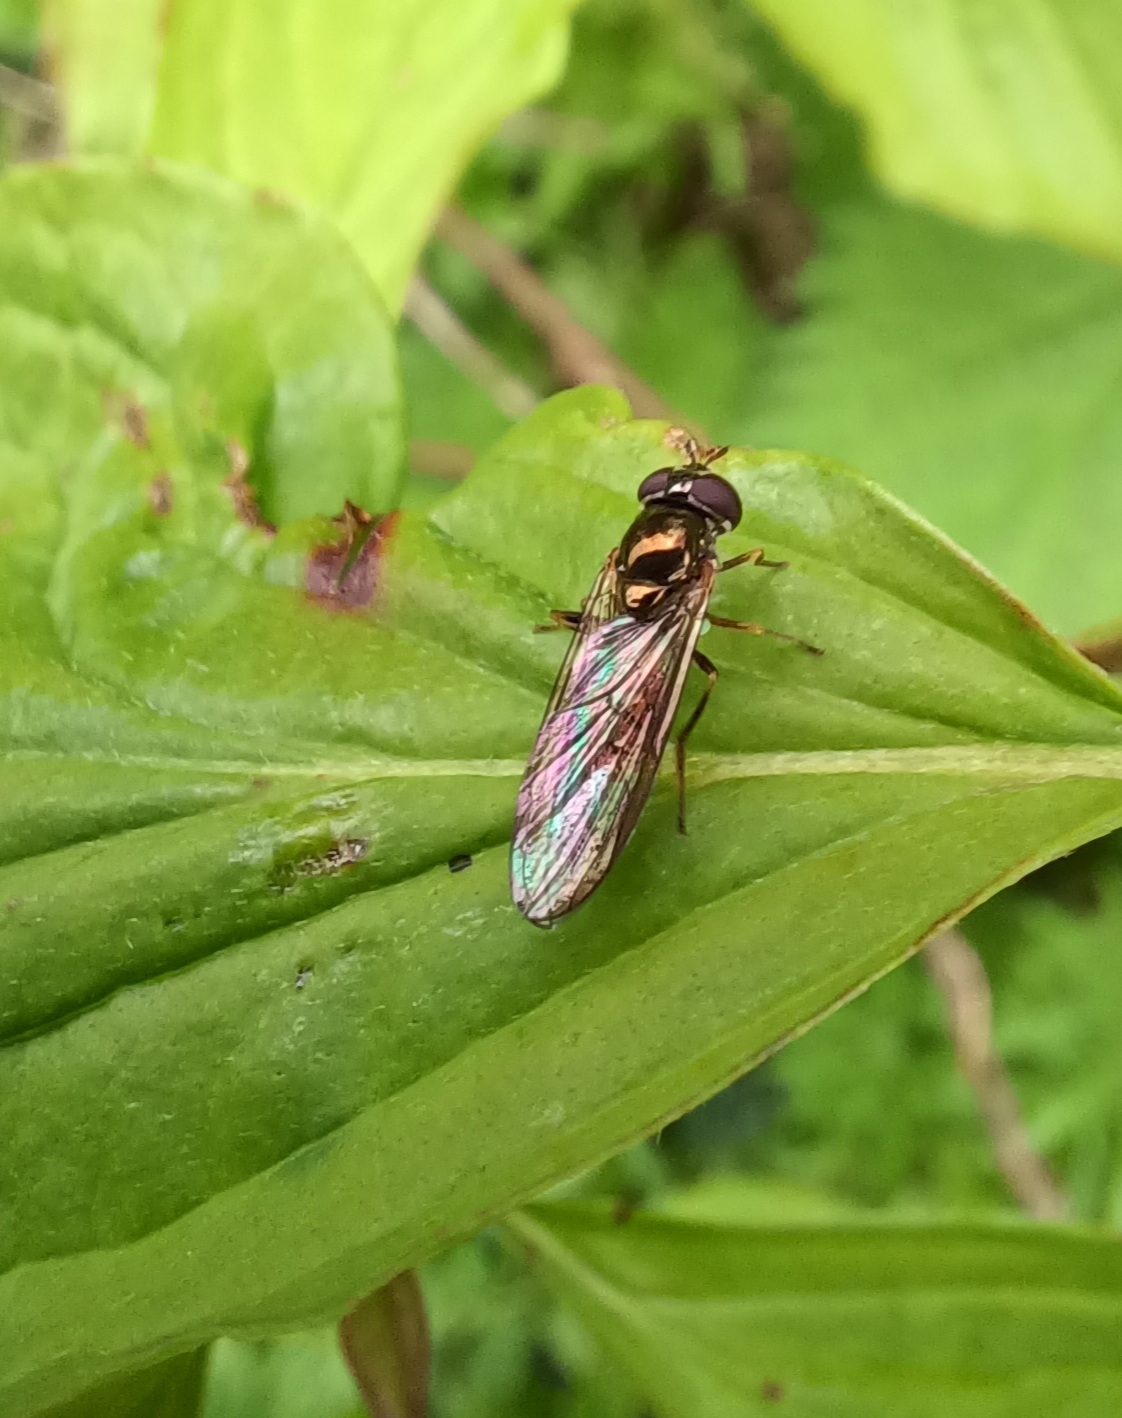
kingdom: Animalia
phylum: Arthropoda
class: Insecta
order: Diptera
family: Syrphidae
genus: Melanostoma
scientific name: Melanostoma scalare
